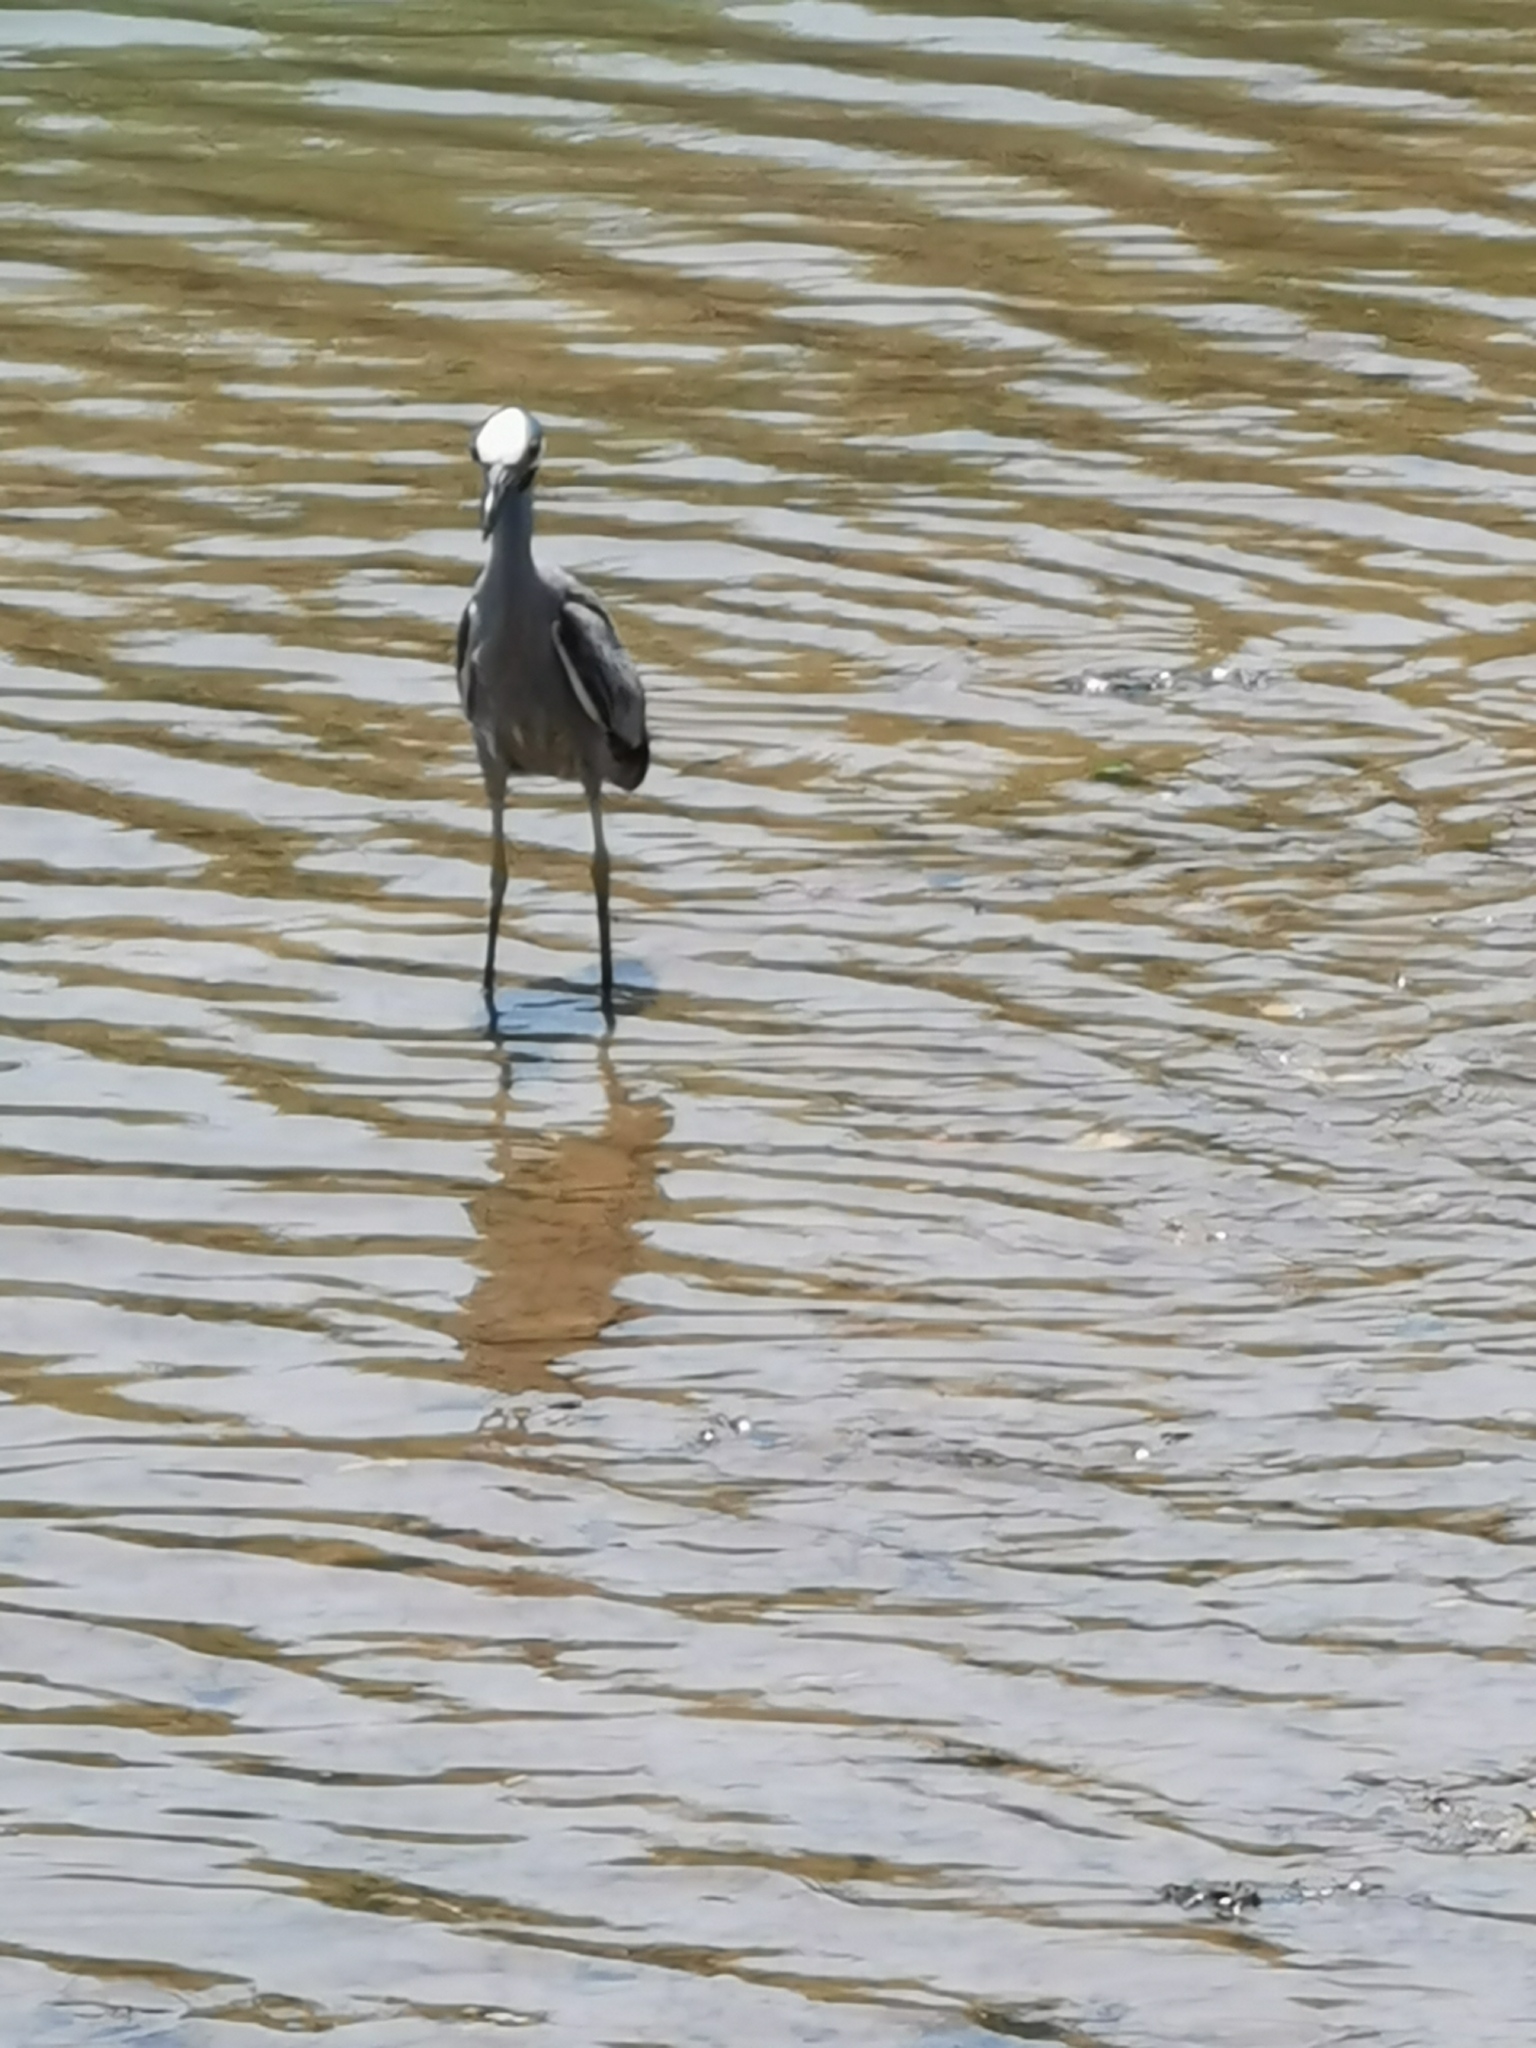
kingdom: Animalia
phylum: Chordata
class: Aves
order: Pelecaniformes
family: Ardeidae
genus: Nyctanassa
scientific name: Nyctanassa violacea
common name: Yellow-crowned night heron
